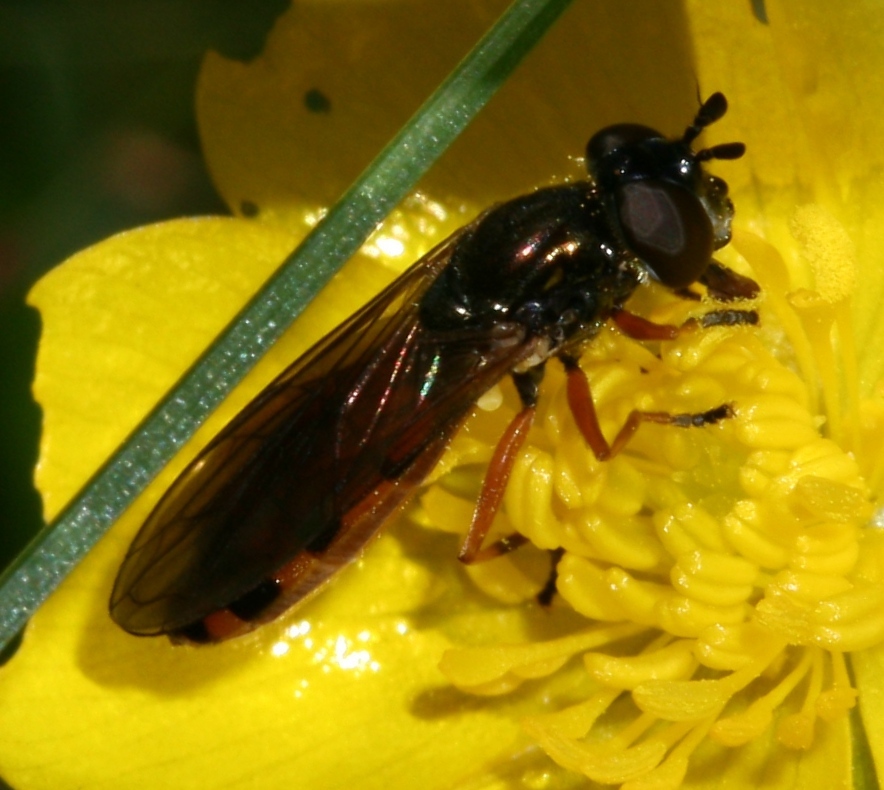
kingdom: Animalia
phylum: Arthropoda
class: Insecta
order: Diptera
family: Syrphidae
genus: Pyrophaena
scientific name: Pyrophaena granditarsa
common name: Hornhand sedgesitter
